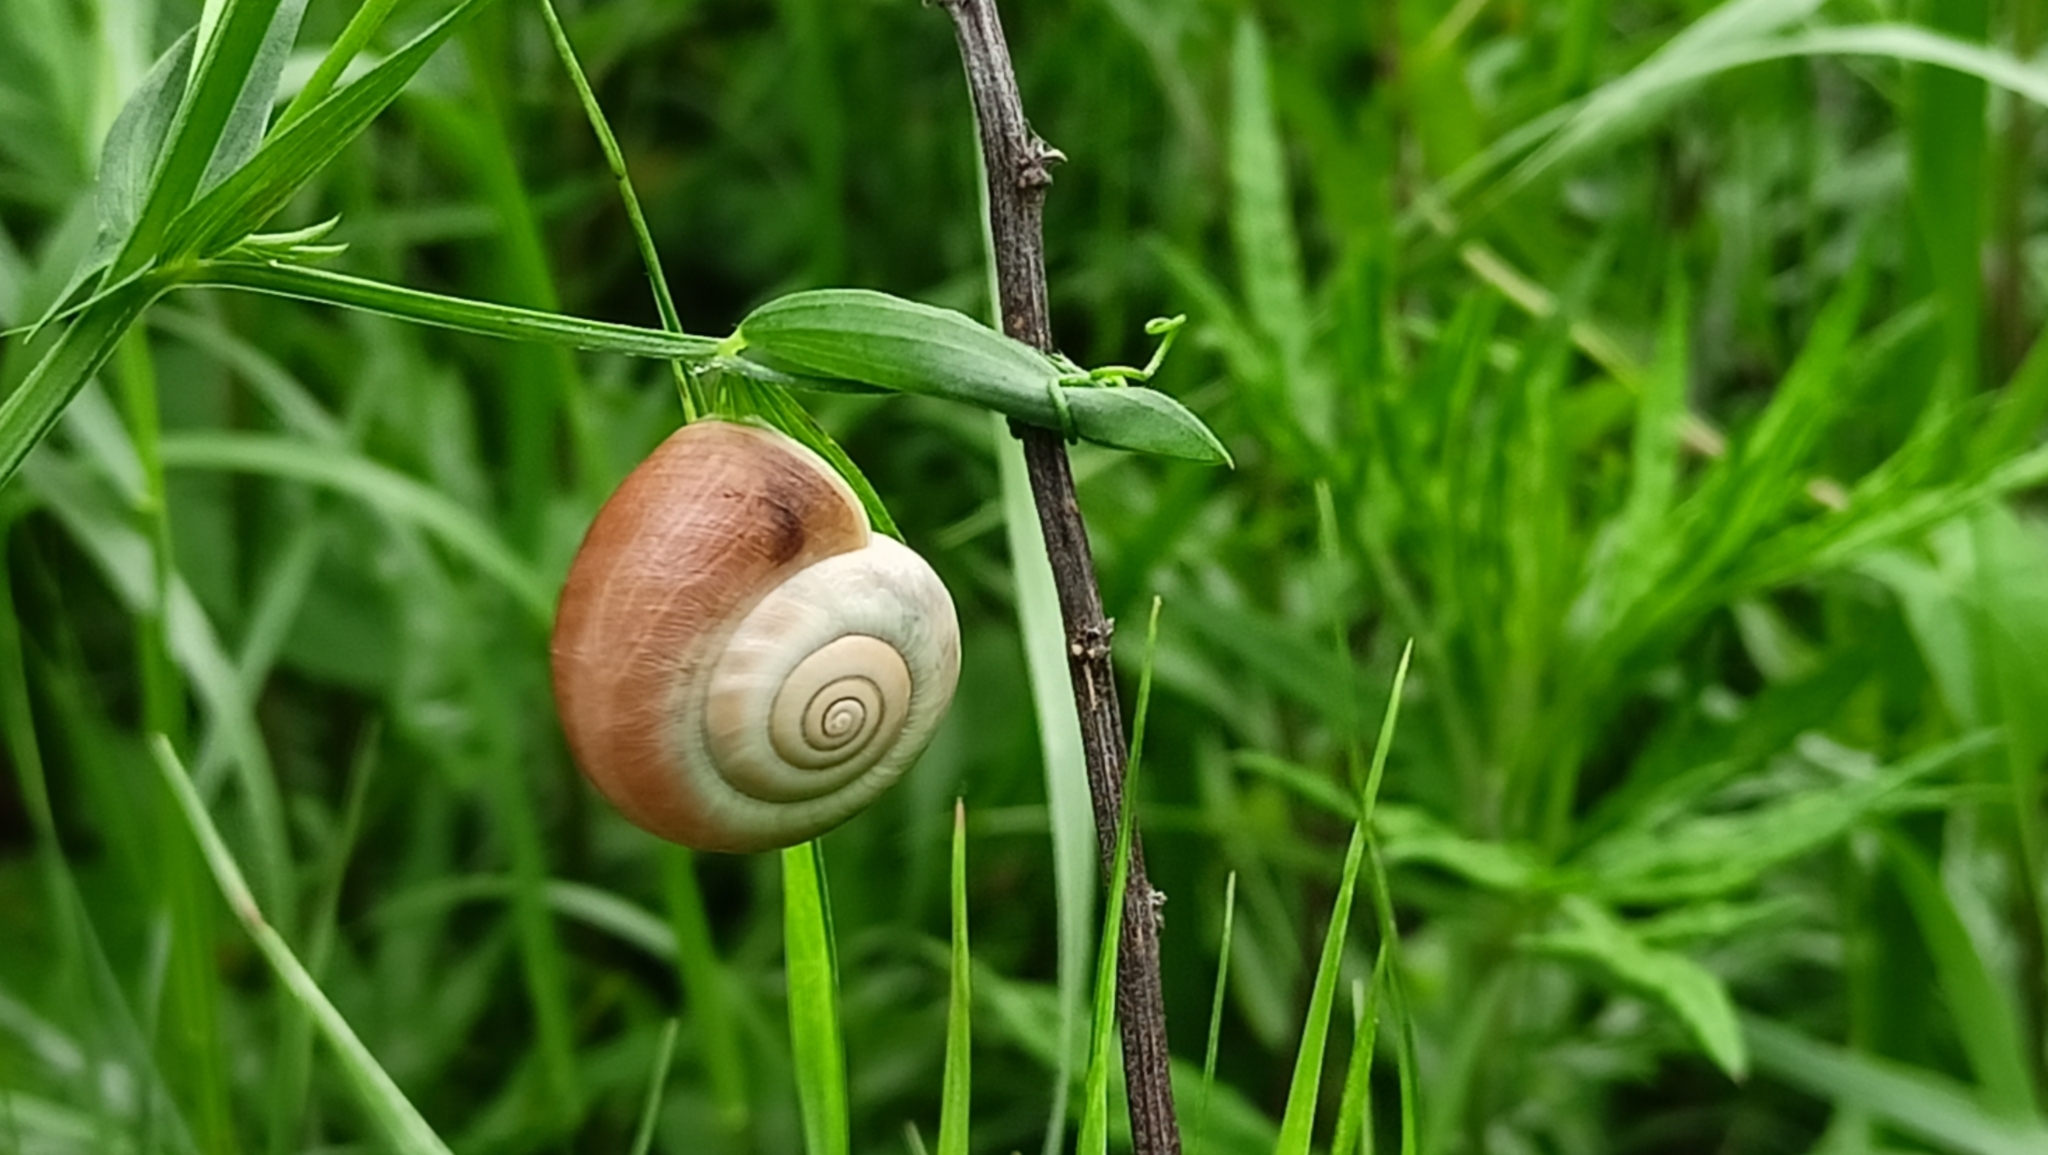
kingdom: Animalia
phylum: Mollusca
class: Gastropoda
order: Stylommatophora
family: Hygromiidae
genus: Monacha
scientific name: Monacha cantiana
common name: Kentish snail
